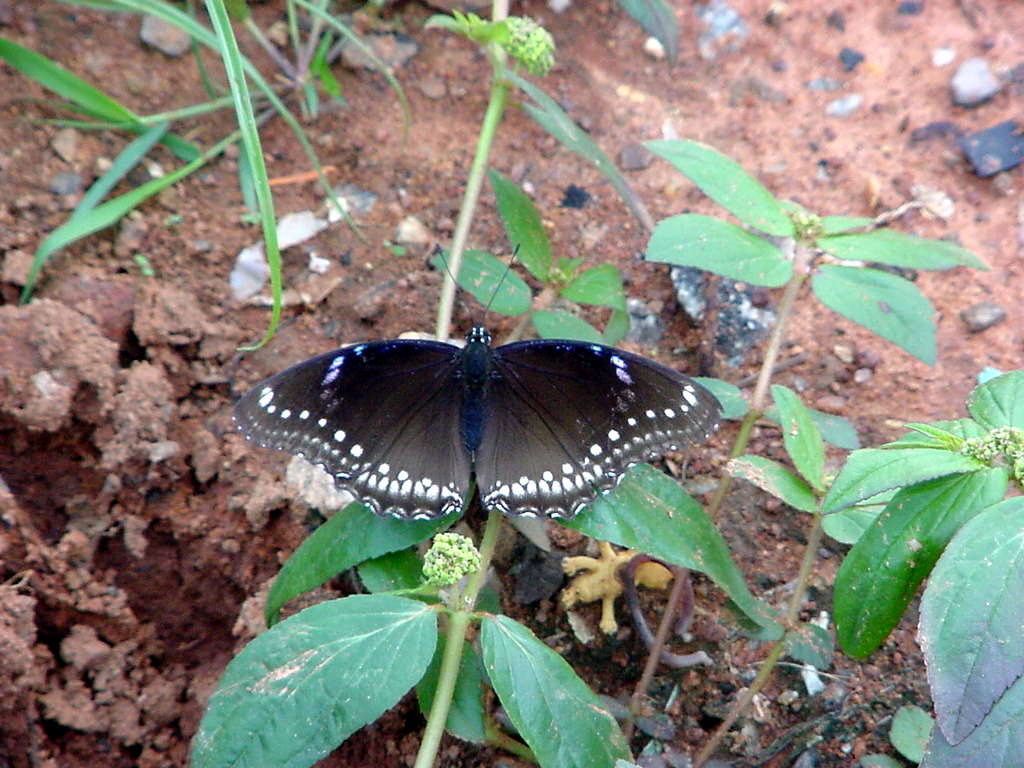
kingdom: Animalia
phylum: Arthropoda
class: Insecta
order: Lepidoptera
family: Nymphalidae
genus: Hypolimnas
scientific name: Hypolimnas bolina
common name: Great eggfly
